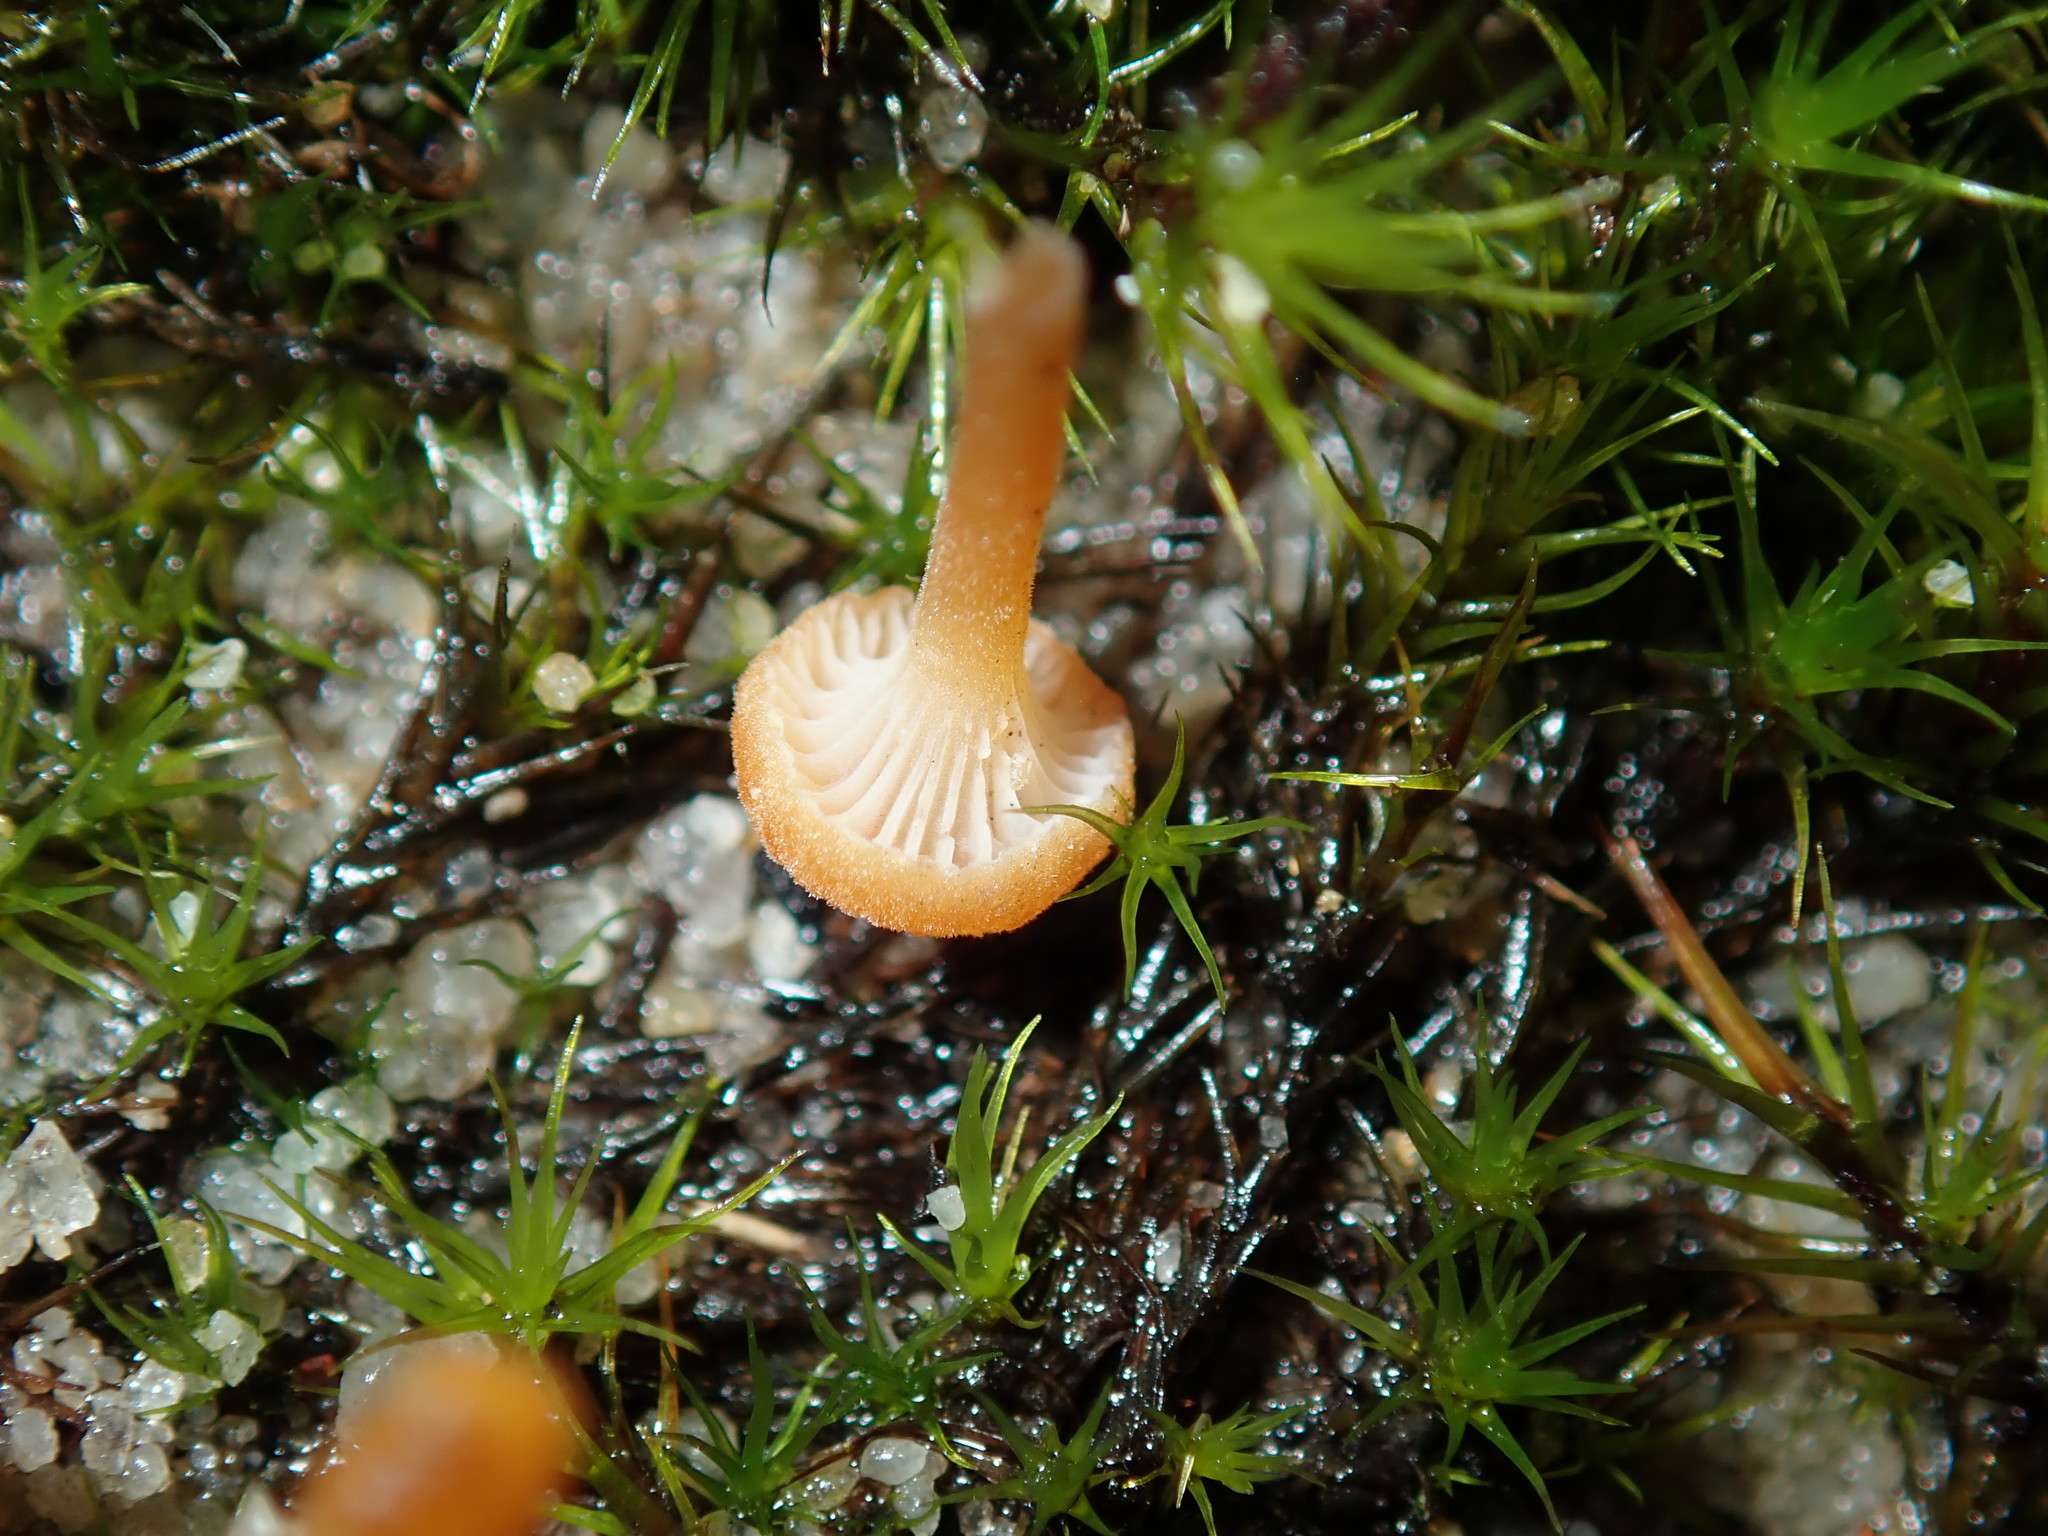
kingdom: Fungi
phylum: Basidiomycota
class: Agaricomycetes
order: Hymenochaetales
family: Rickenellaceae
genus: Rickenella
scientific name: Rickenella fibula
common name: Orange mosscap
